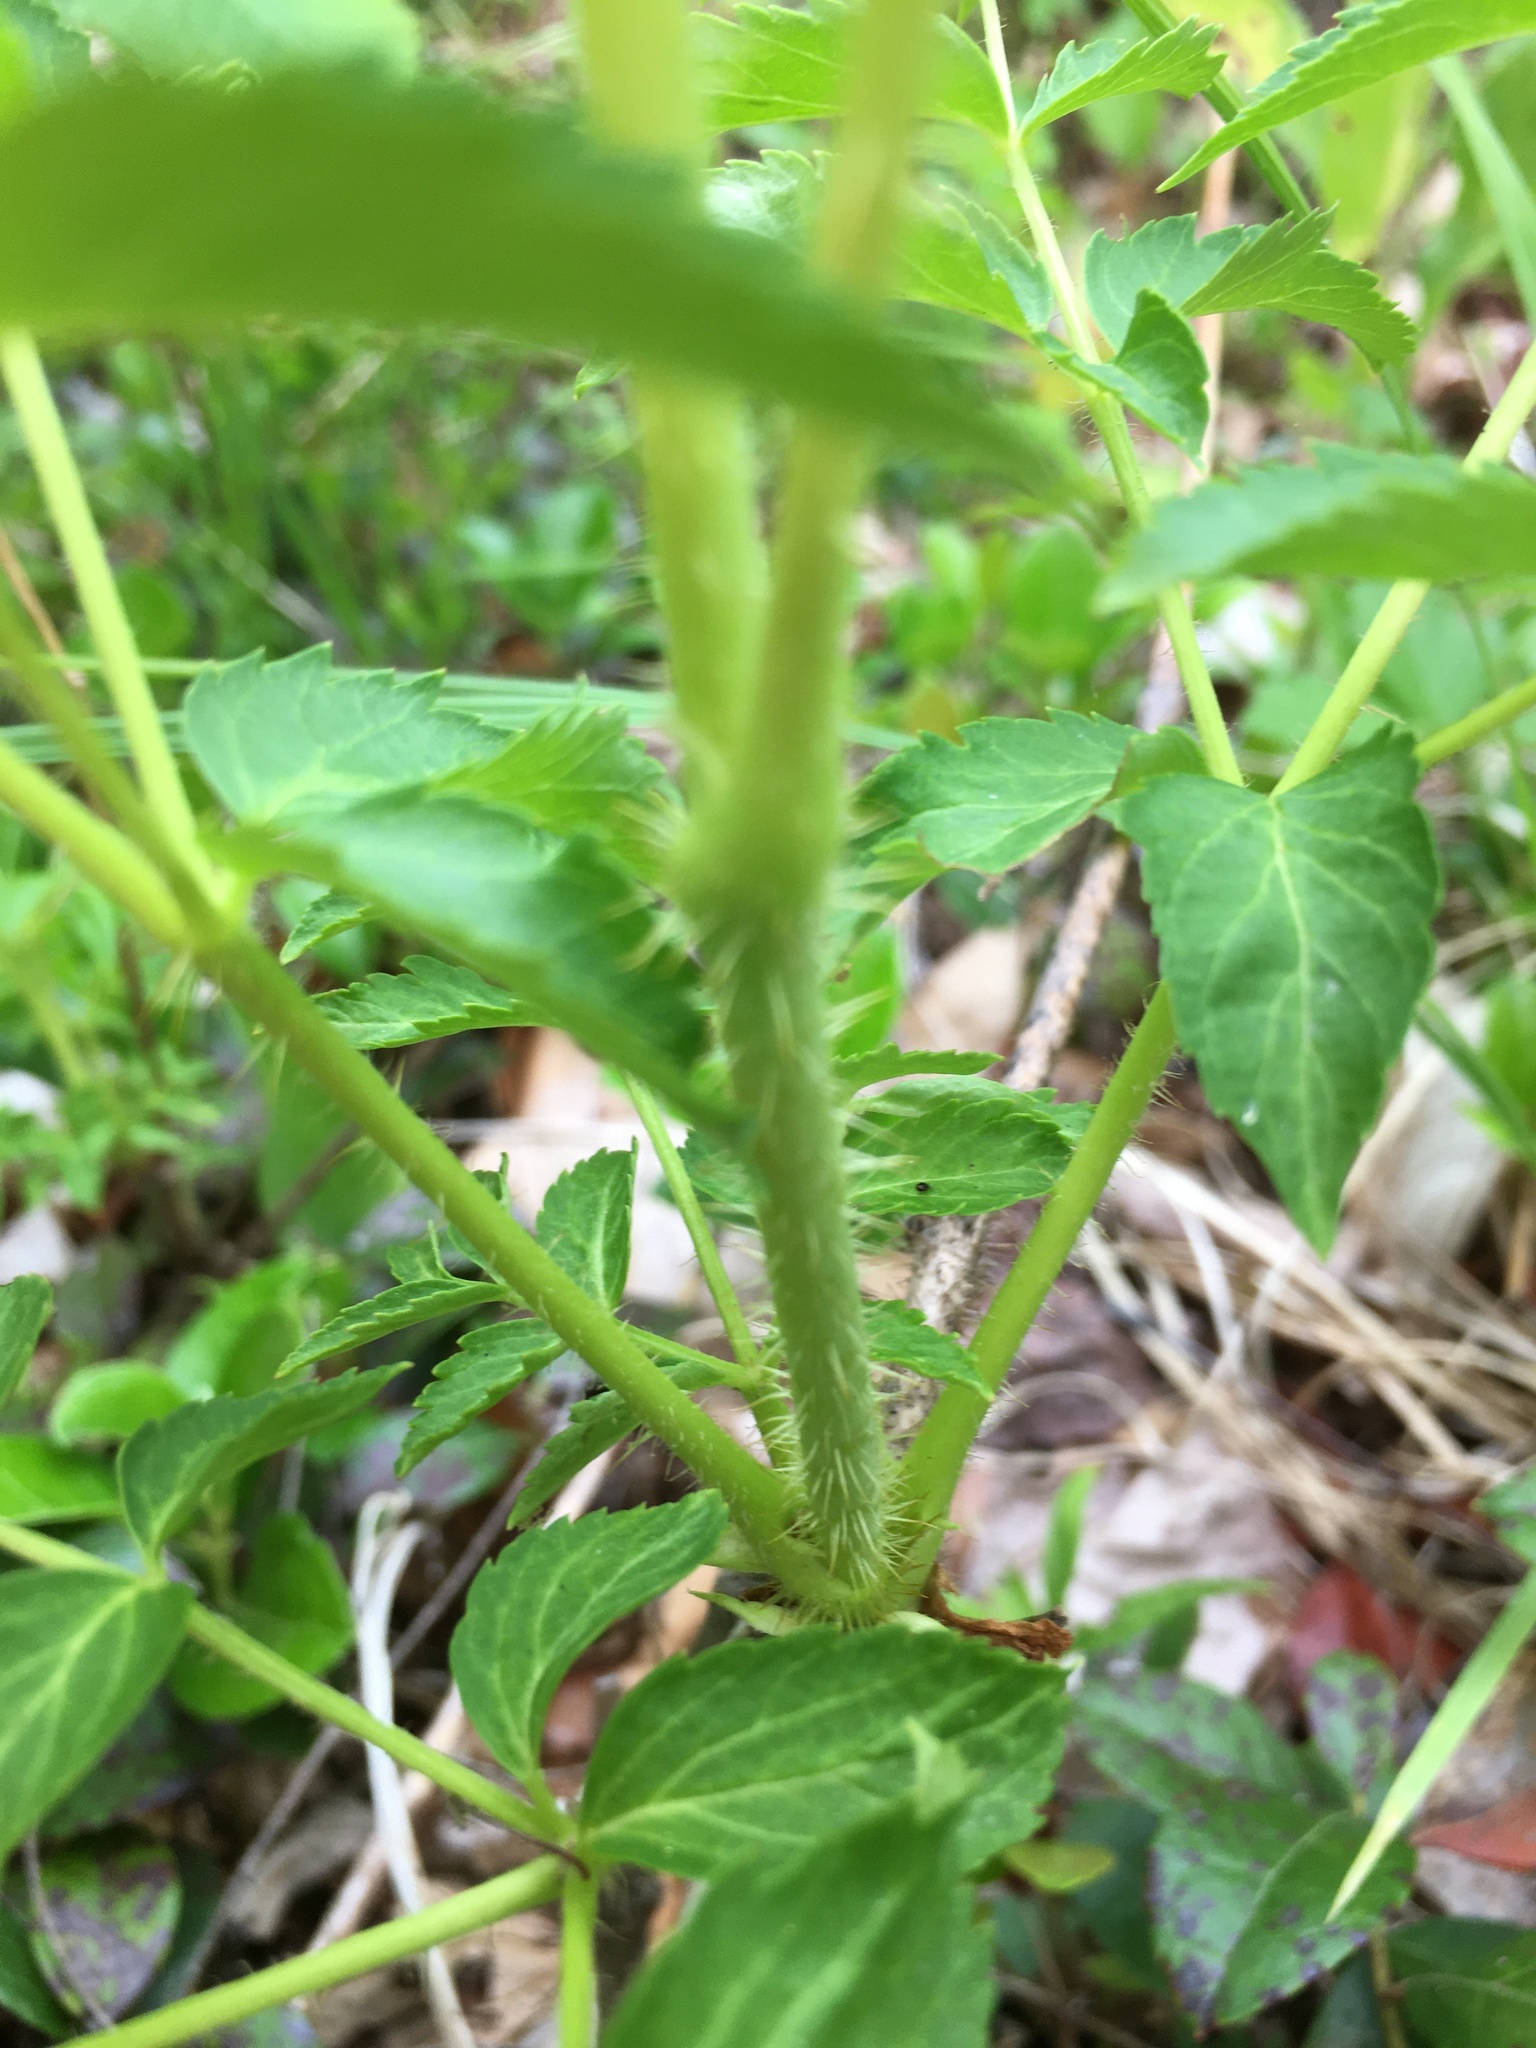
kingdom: Plantae
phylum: Tracheophyta
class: Magnoliopsida
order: Apiales
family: Araliaceae
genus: Aralia
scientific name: Aralia hispida
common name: Bristly sarsaparilla
